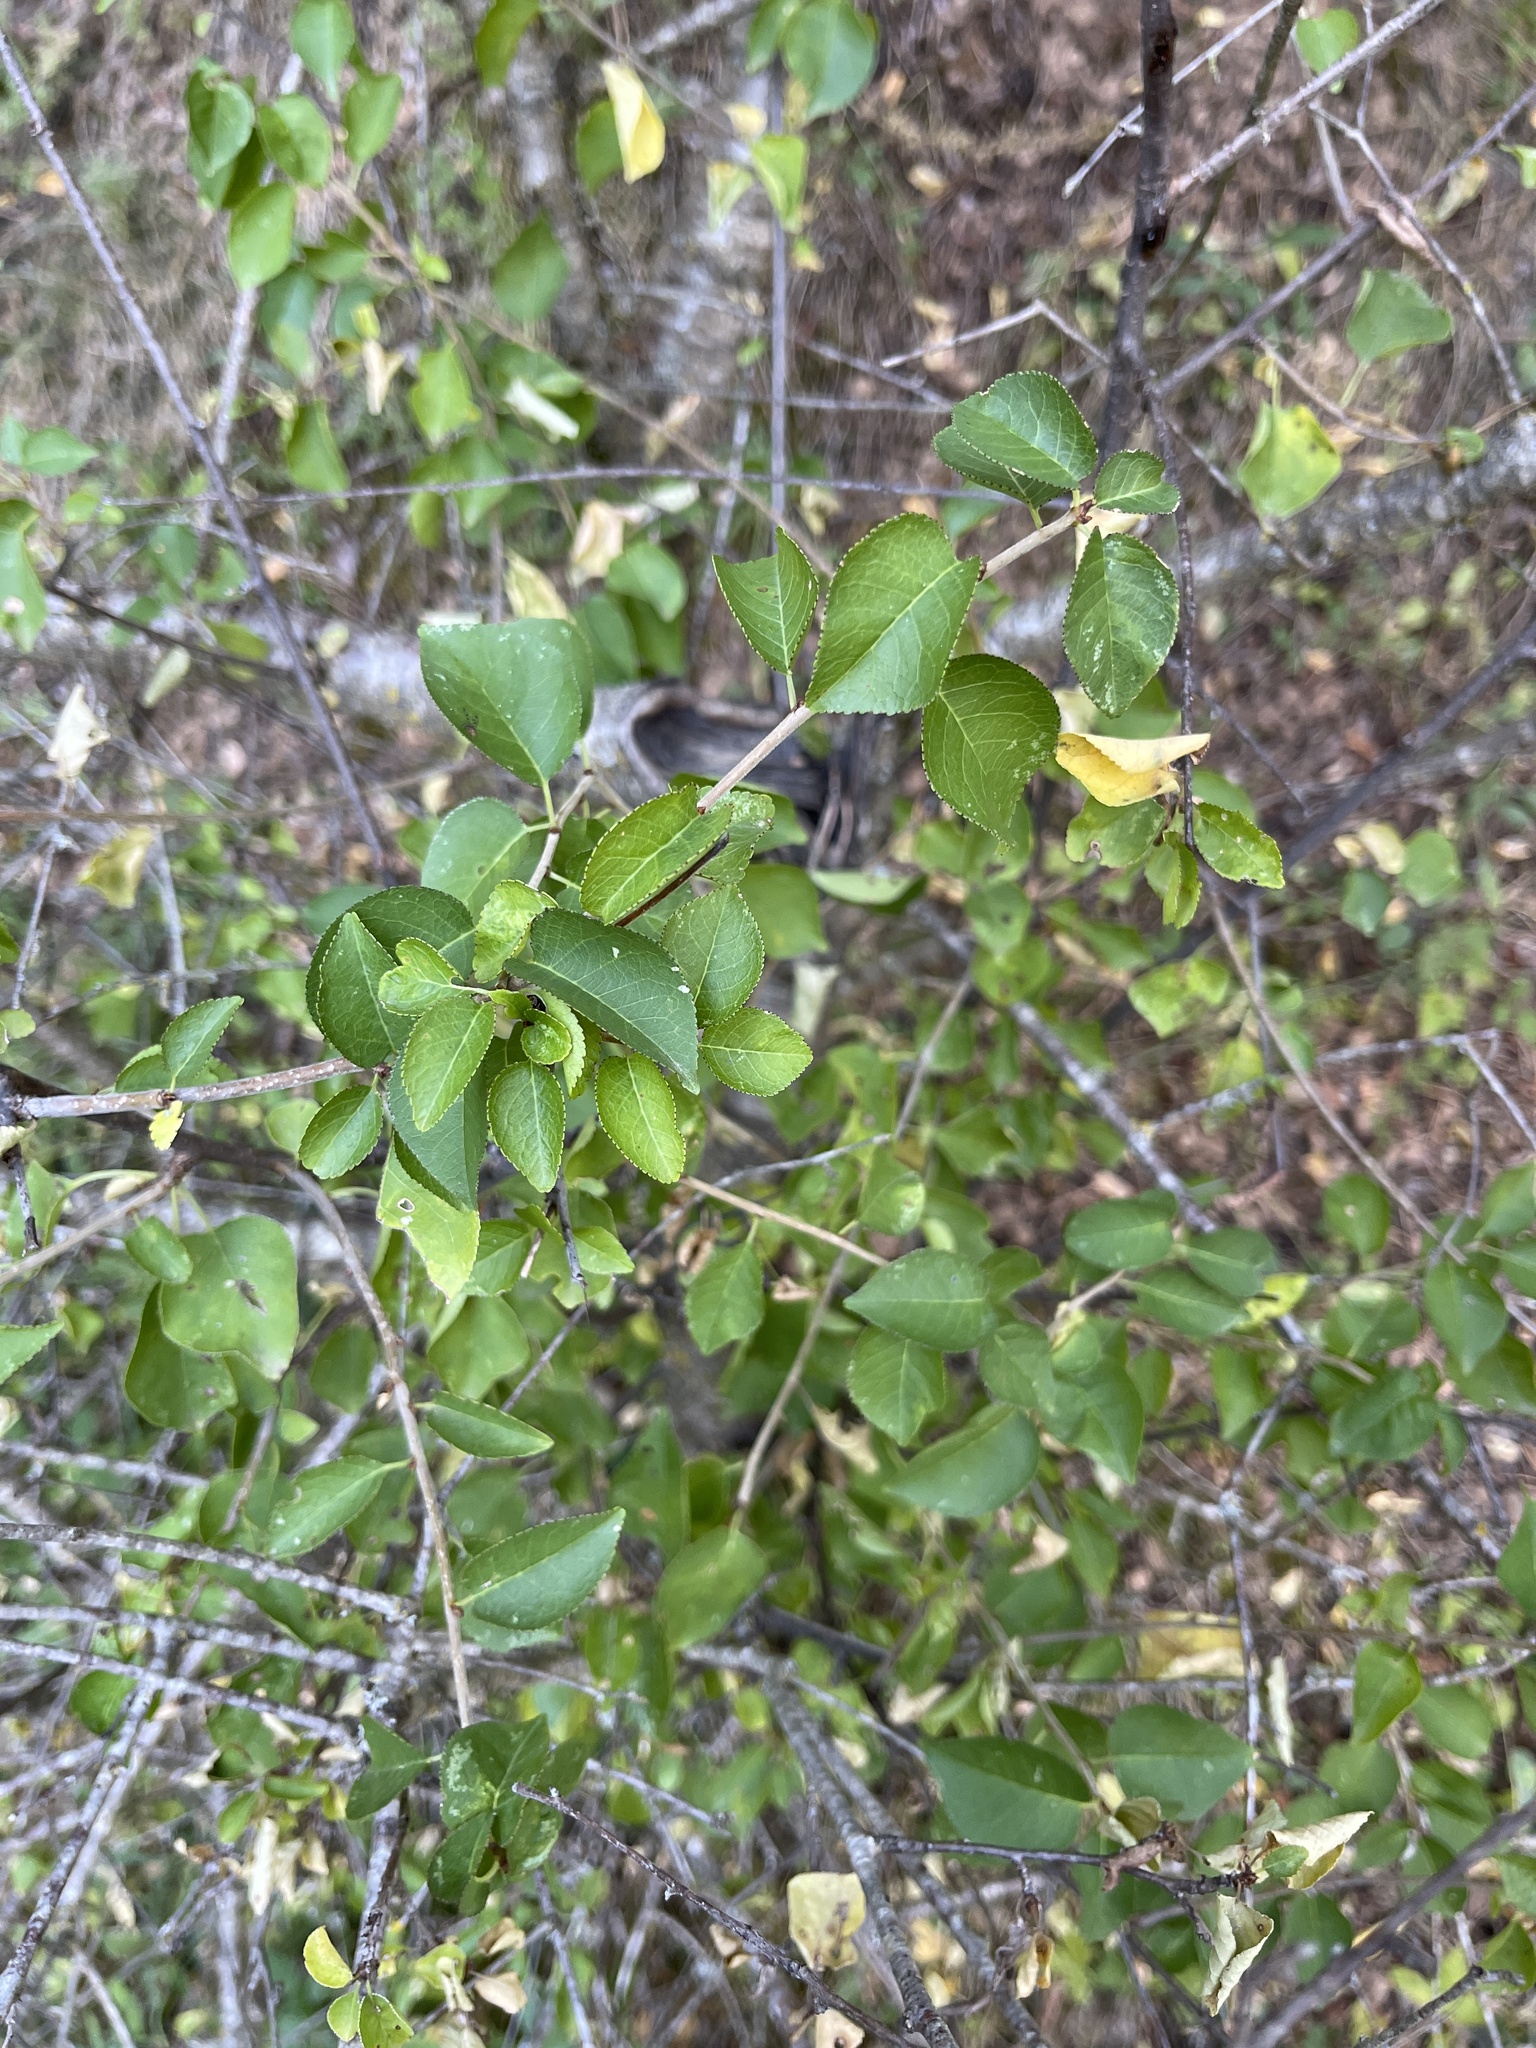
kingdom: Plantae
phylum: Tracheophyta
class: Magnoliopsida
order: Rosales
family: Rosaceae
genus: Prunus
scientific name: Prunus mahaleb
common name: Mahaleb cherry
